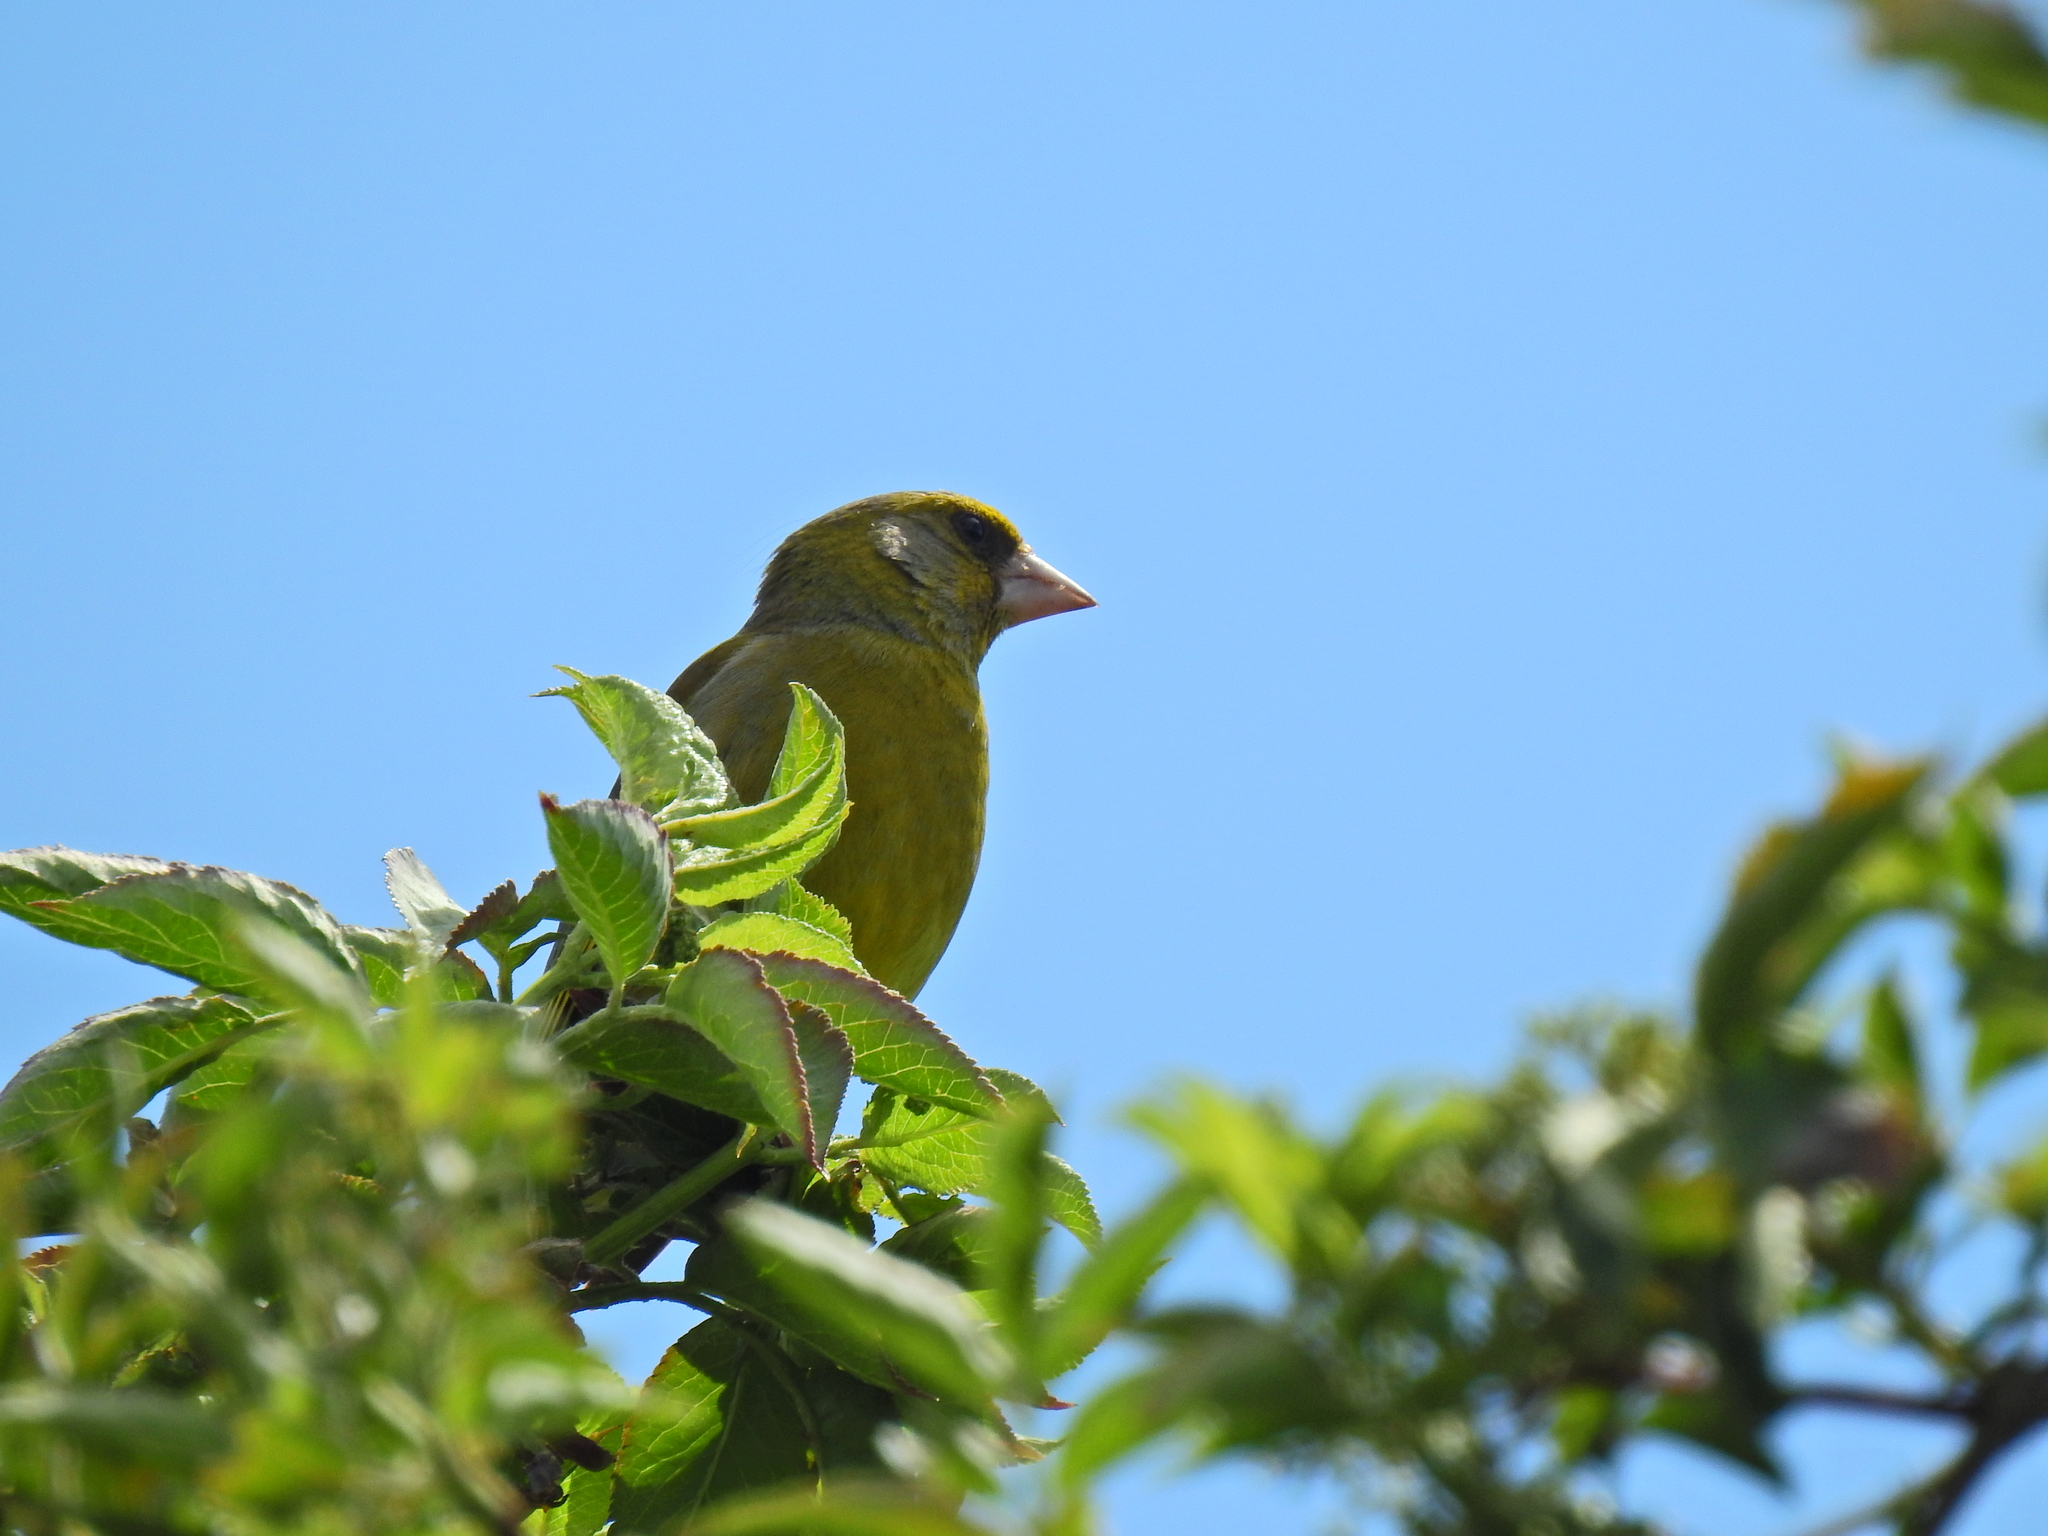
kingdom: Plantae
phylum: Tracheophyta
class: Liliopsida
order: Poales
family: Poaceae
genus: Chloris
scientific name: Chloris chloris
